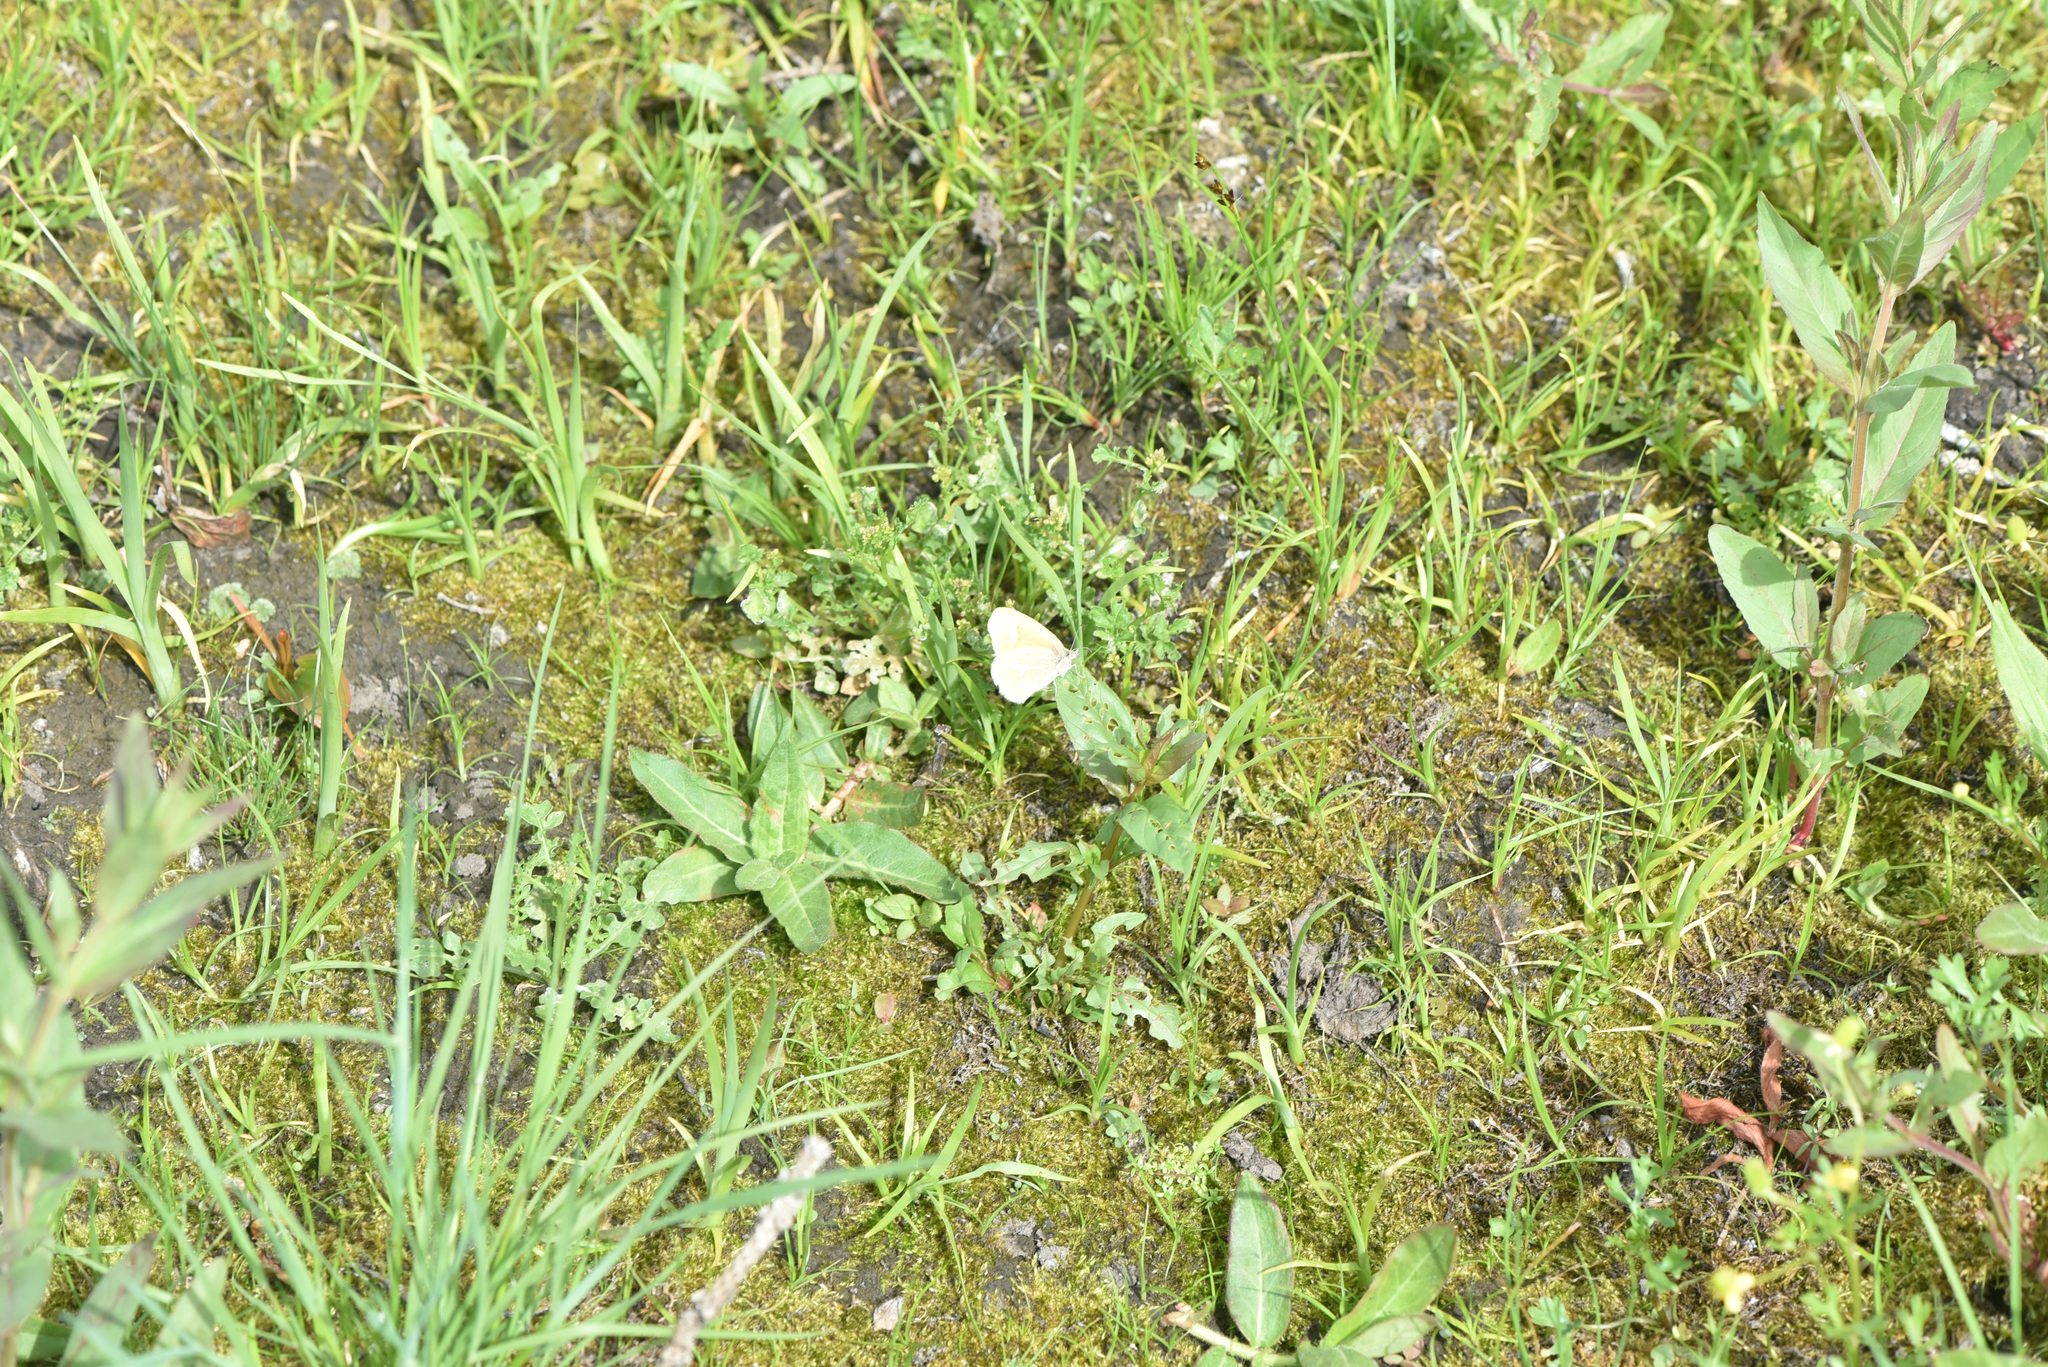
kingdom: Animalia
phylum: Arthropoda
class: Insecta
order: Lepidoptera
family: Nymphalidae
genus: Coenonympha
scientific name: Coenonympha california
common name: Common ringlet
